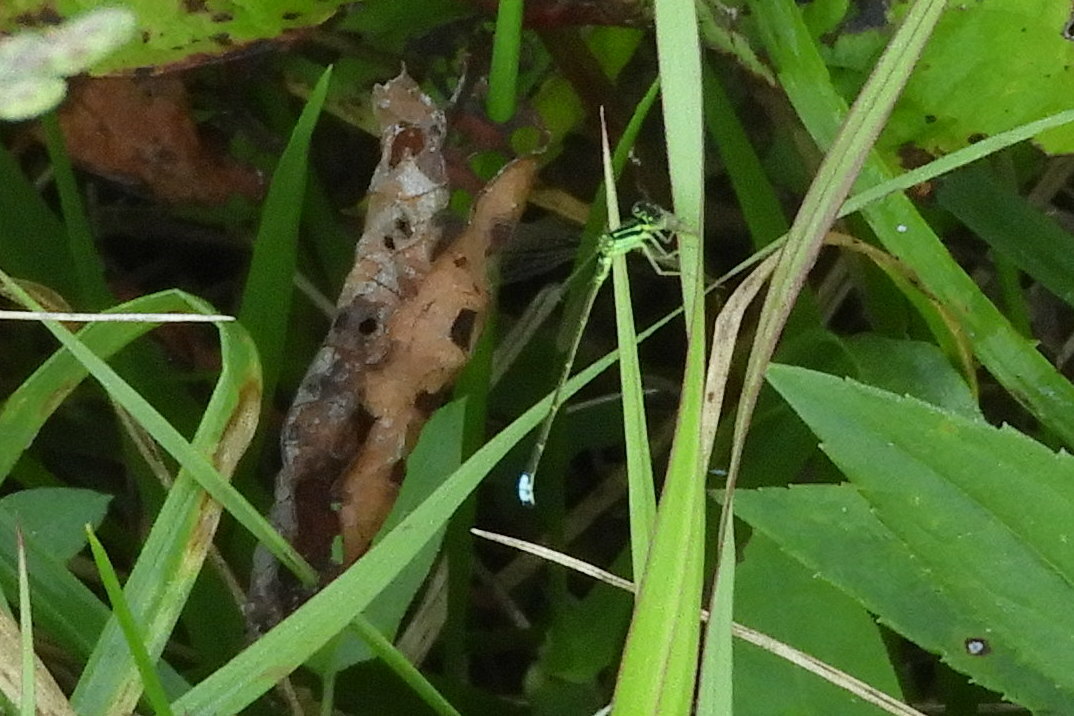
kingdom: Animalia
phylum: Arthropoda
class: Insecta
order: Odonata
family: Coenagrionidae
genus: Ischnura
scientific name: Ischnura verticalis
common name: Eastern forktail
